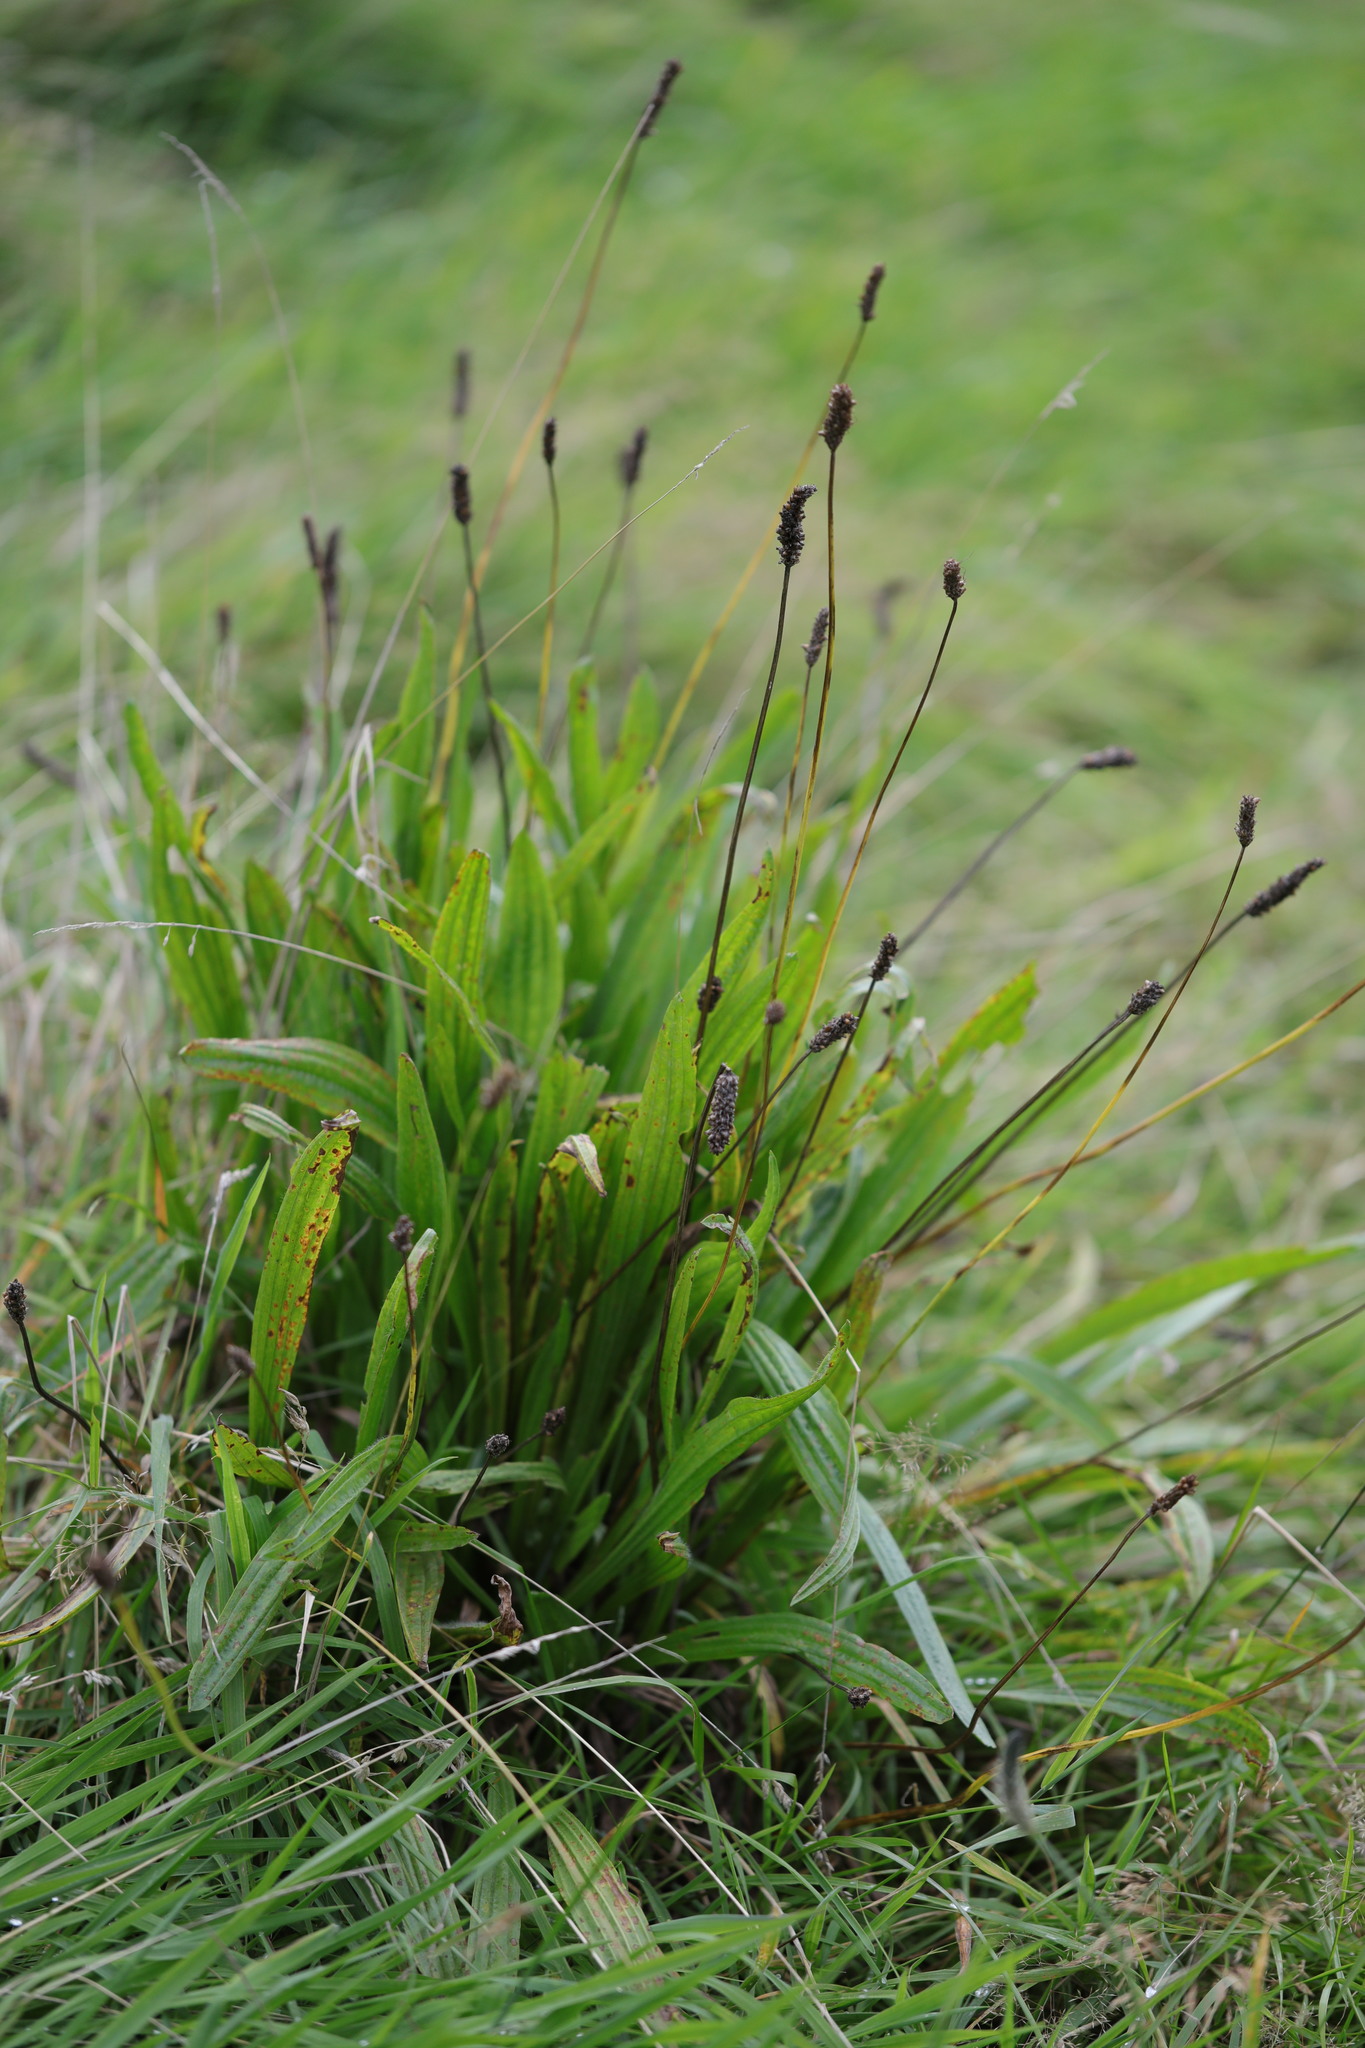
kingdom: Plantae
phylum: Tracheophyta
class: Magnoliopsida
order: Lamiales
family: Plantaginaceae
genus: Plantago
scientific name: Plantago lanceolata
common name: Ribwort plantain
